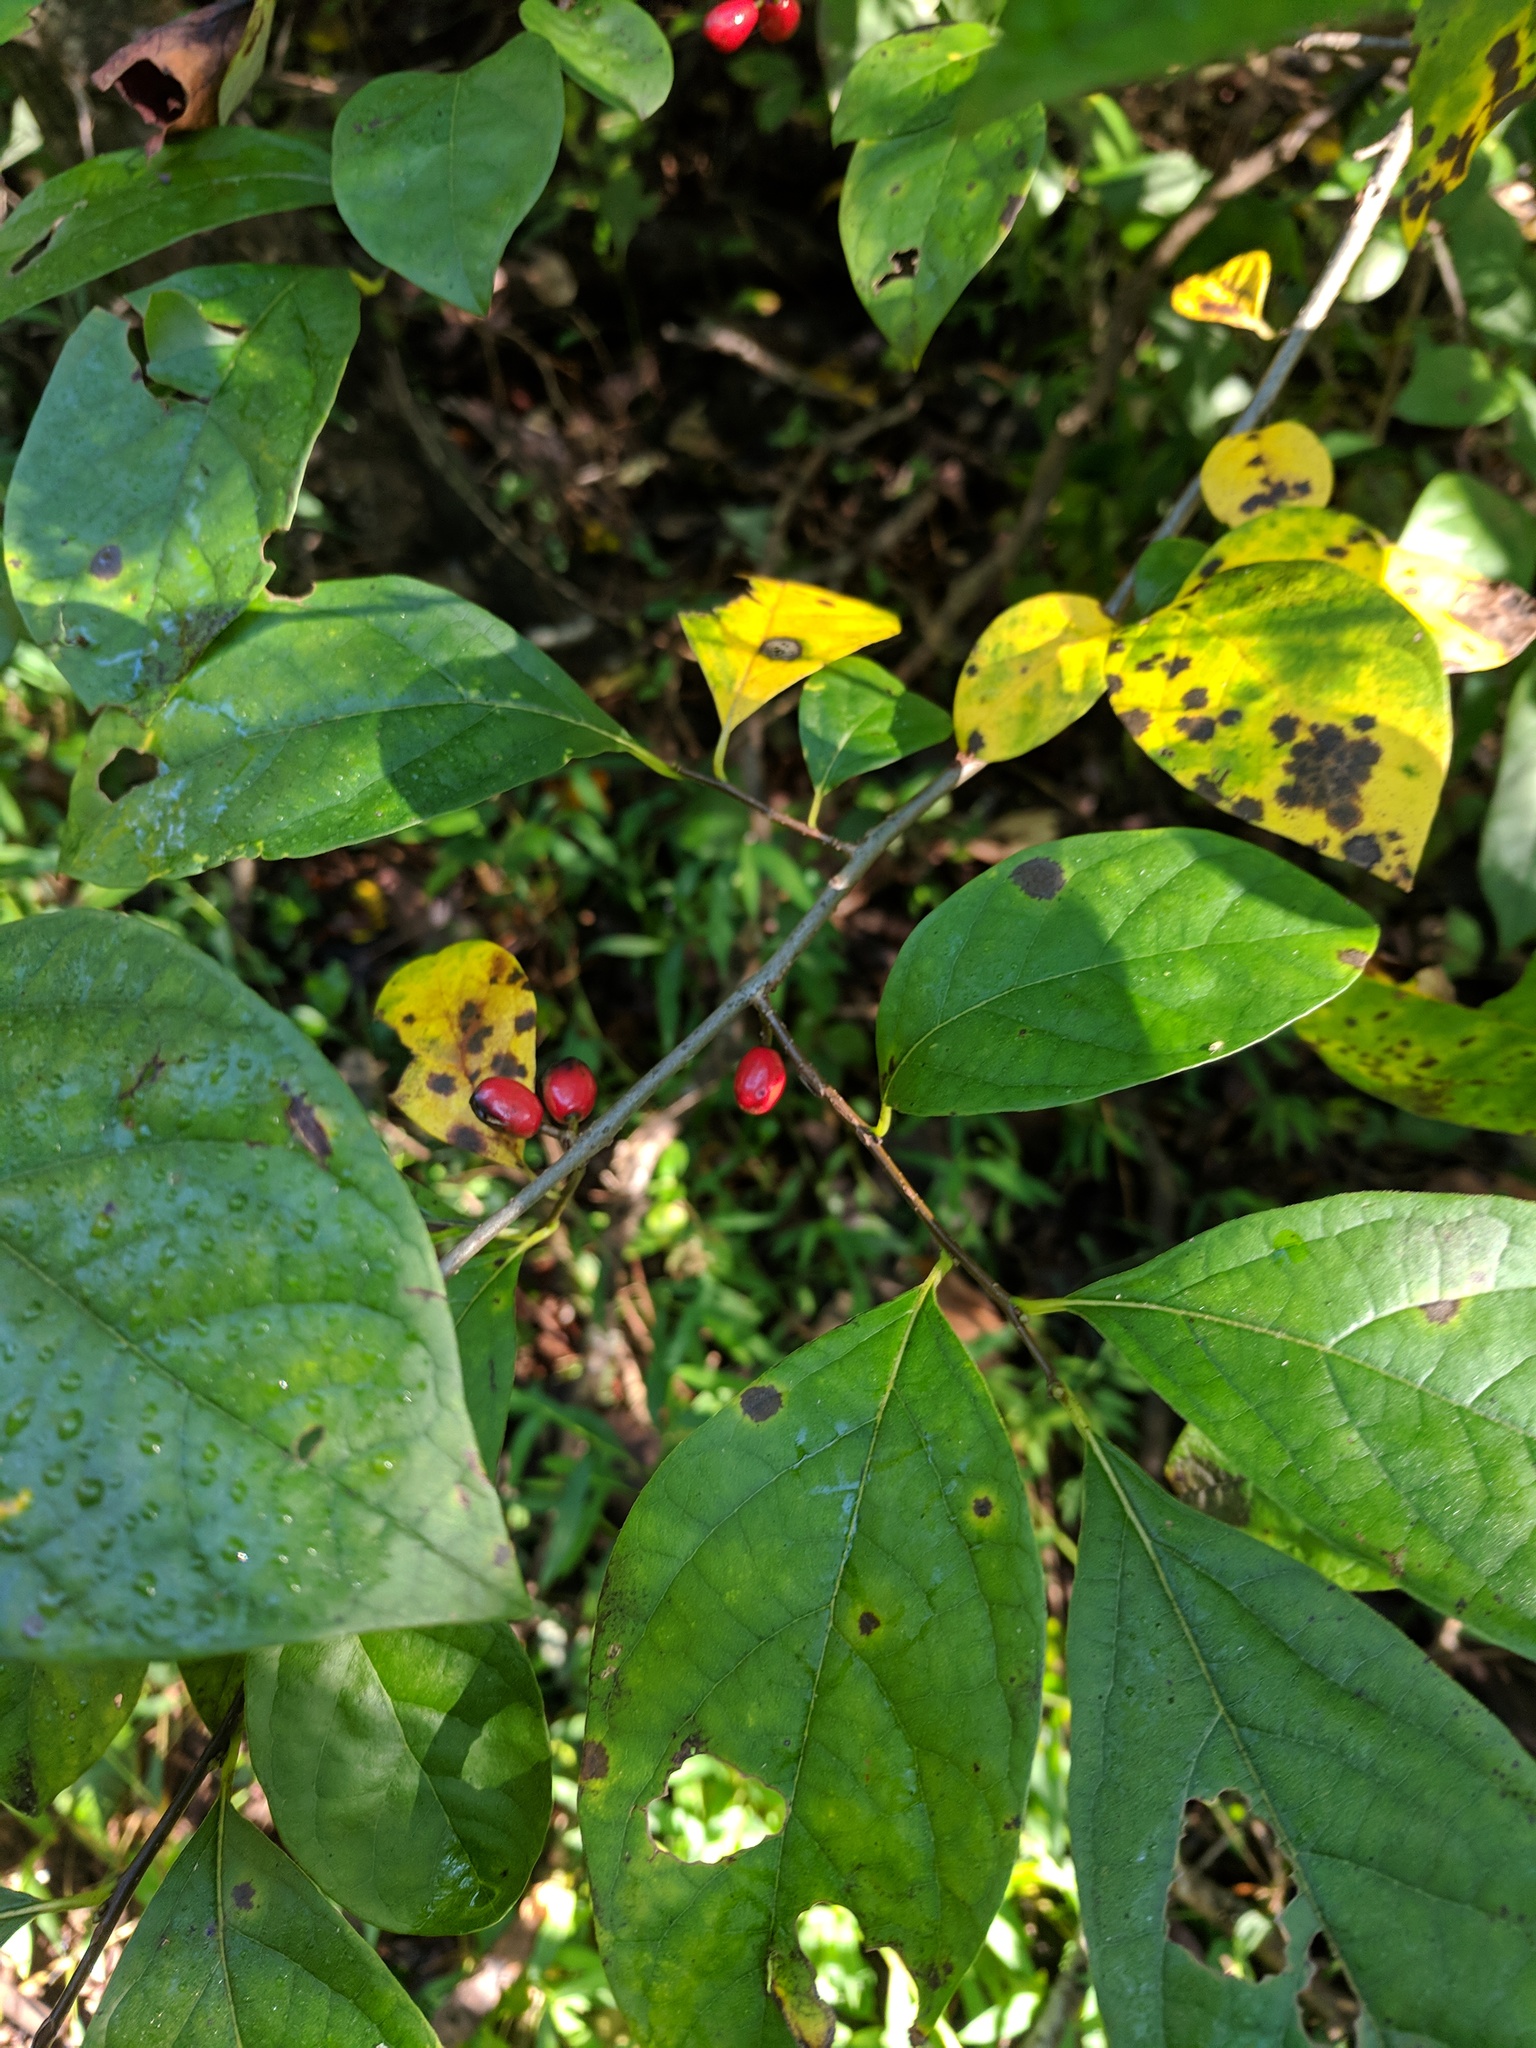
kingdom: Plantae
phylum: Tracheophyta
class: Magnoliopsida
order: Laurales
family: Lauraceae
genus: Lindera
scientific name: Lindera benzoin
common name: Spicebush
